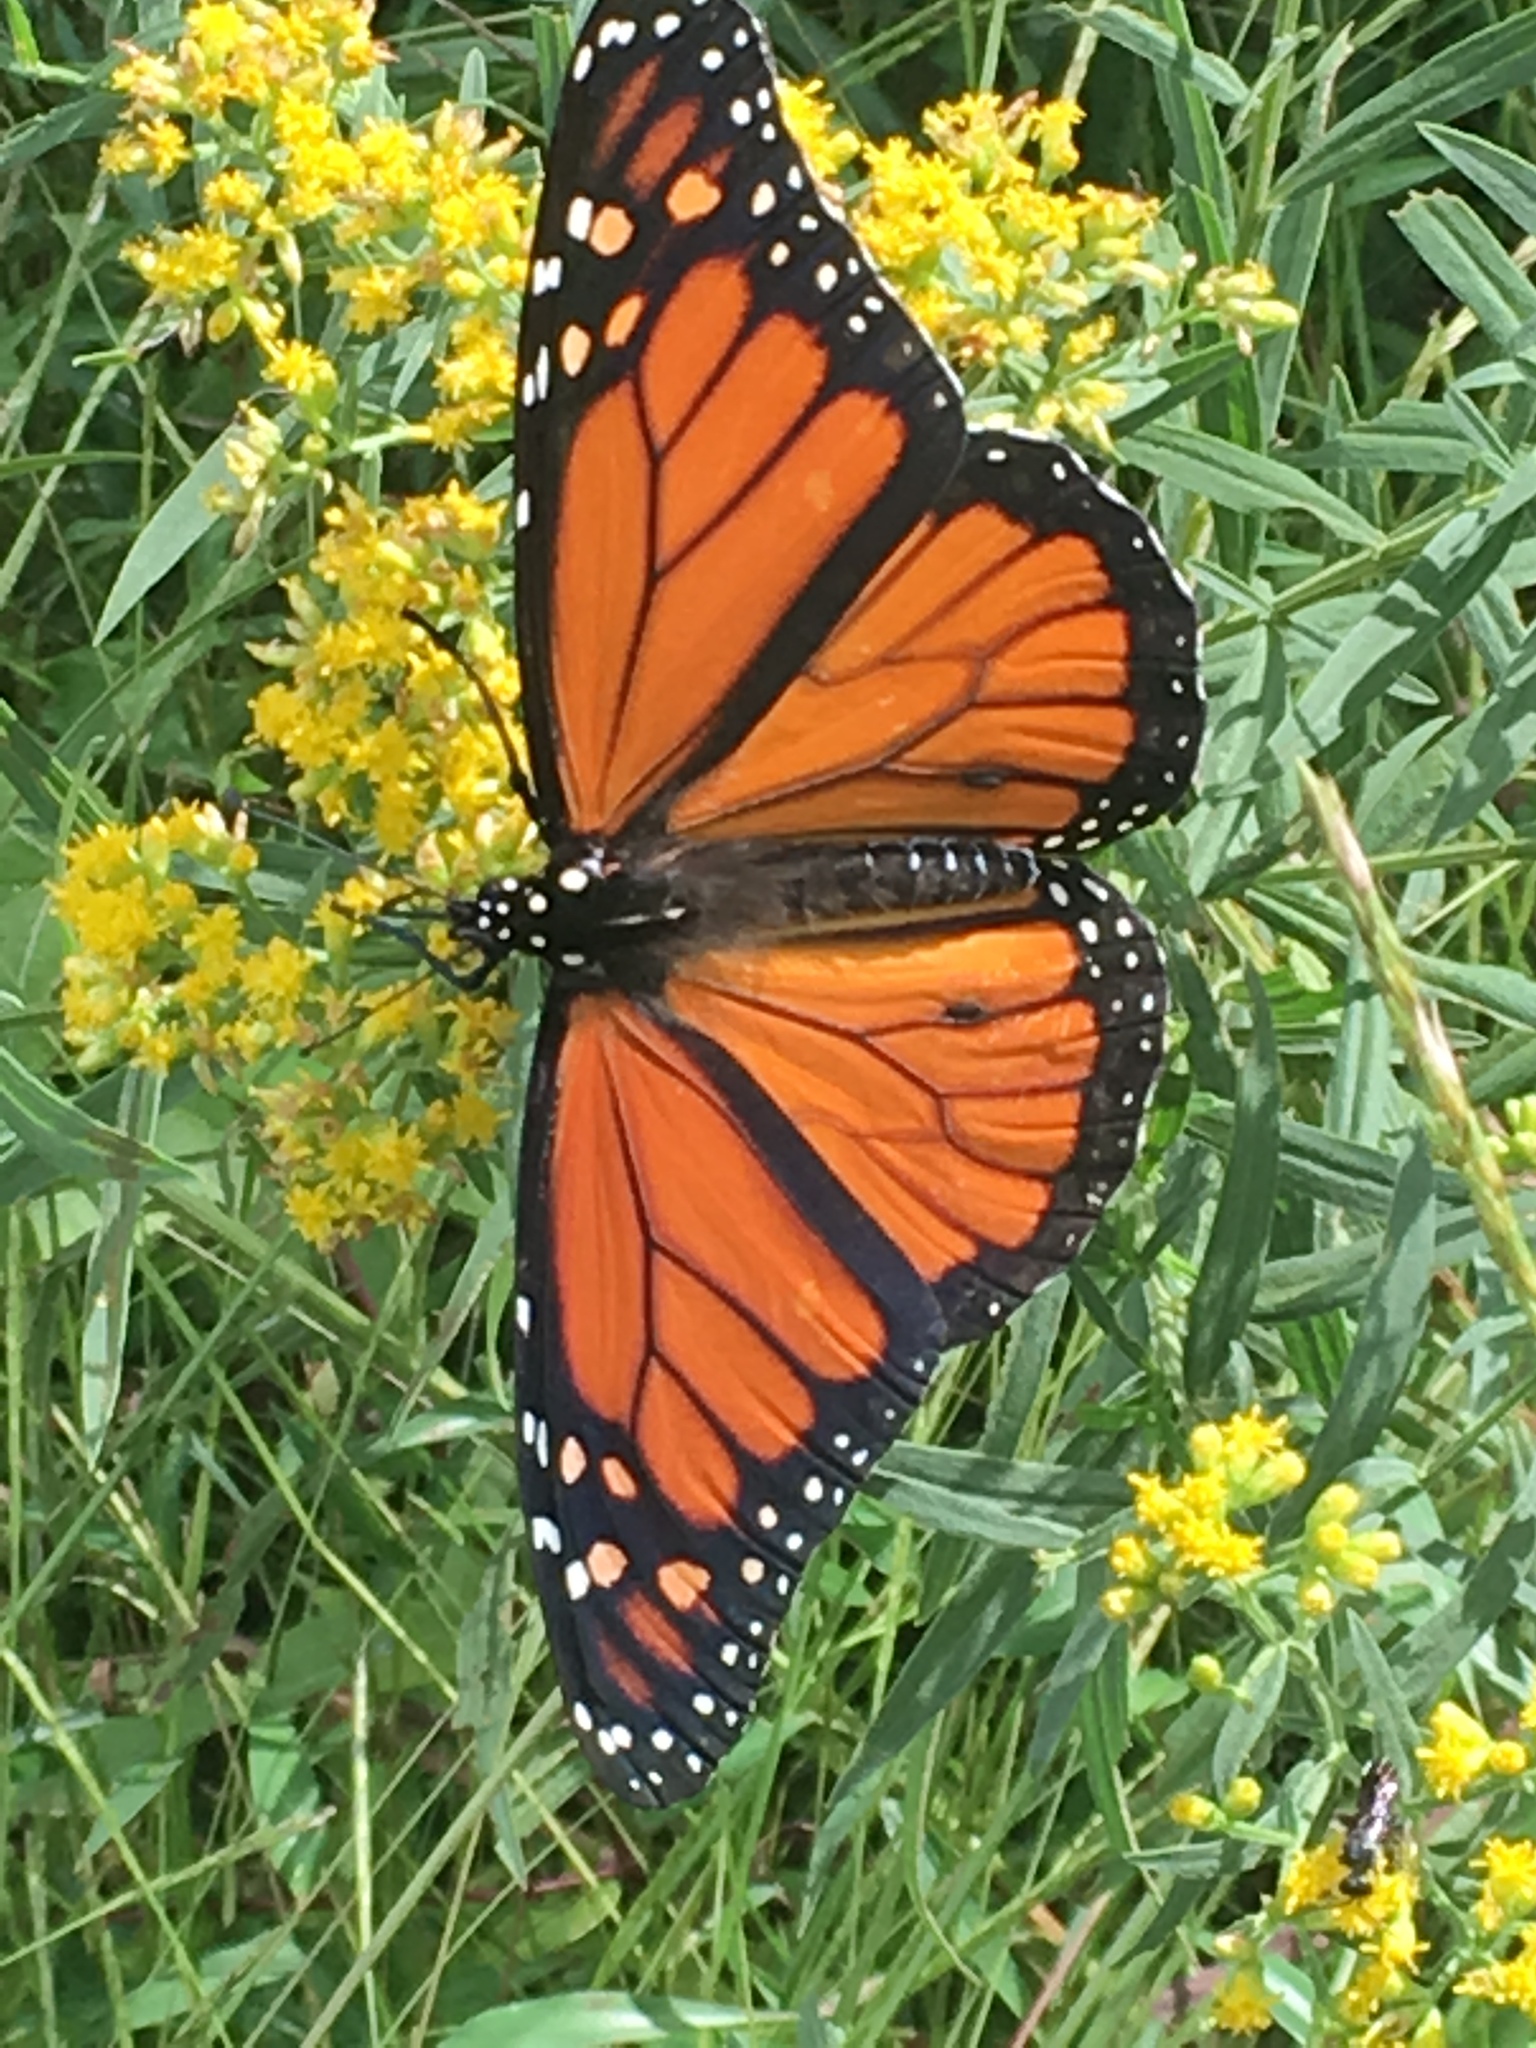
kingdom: Animalia
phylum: Arthropoda
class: Insecta
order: Lepidoptera
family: Nymphalidae
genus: Danaus
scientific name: Danaus plexippus
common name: Monarch
